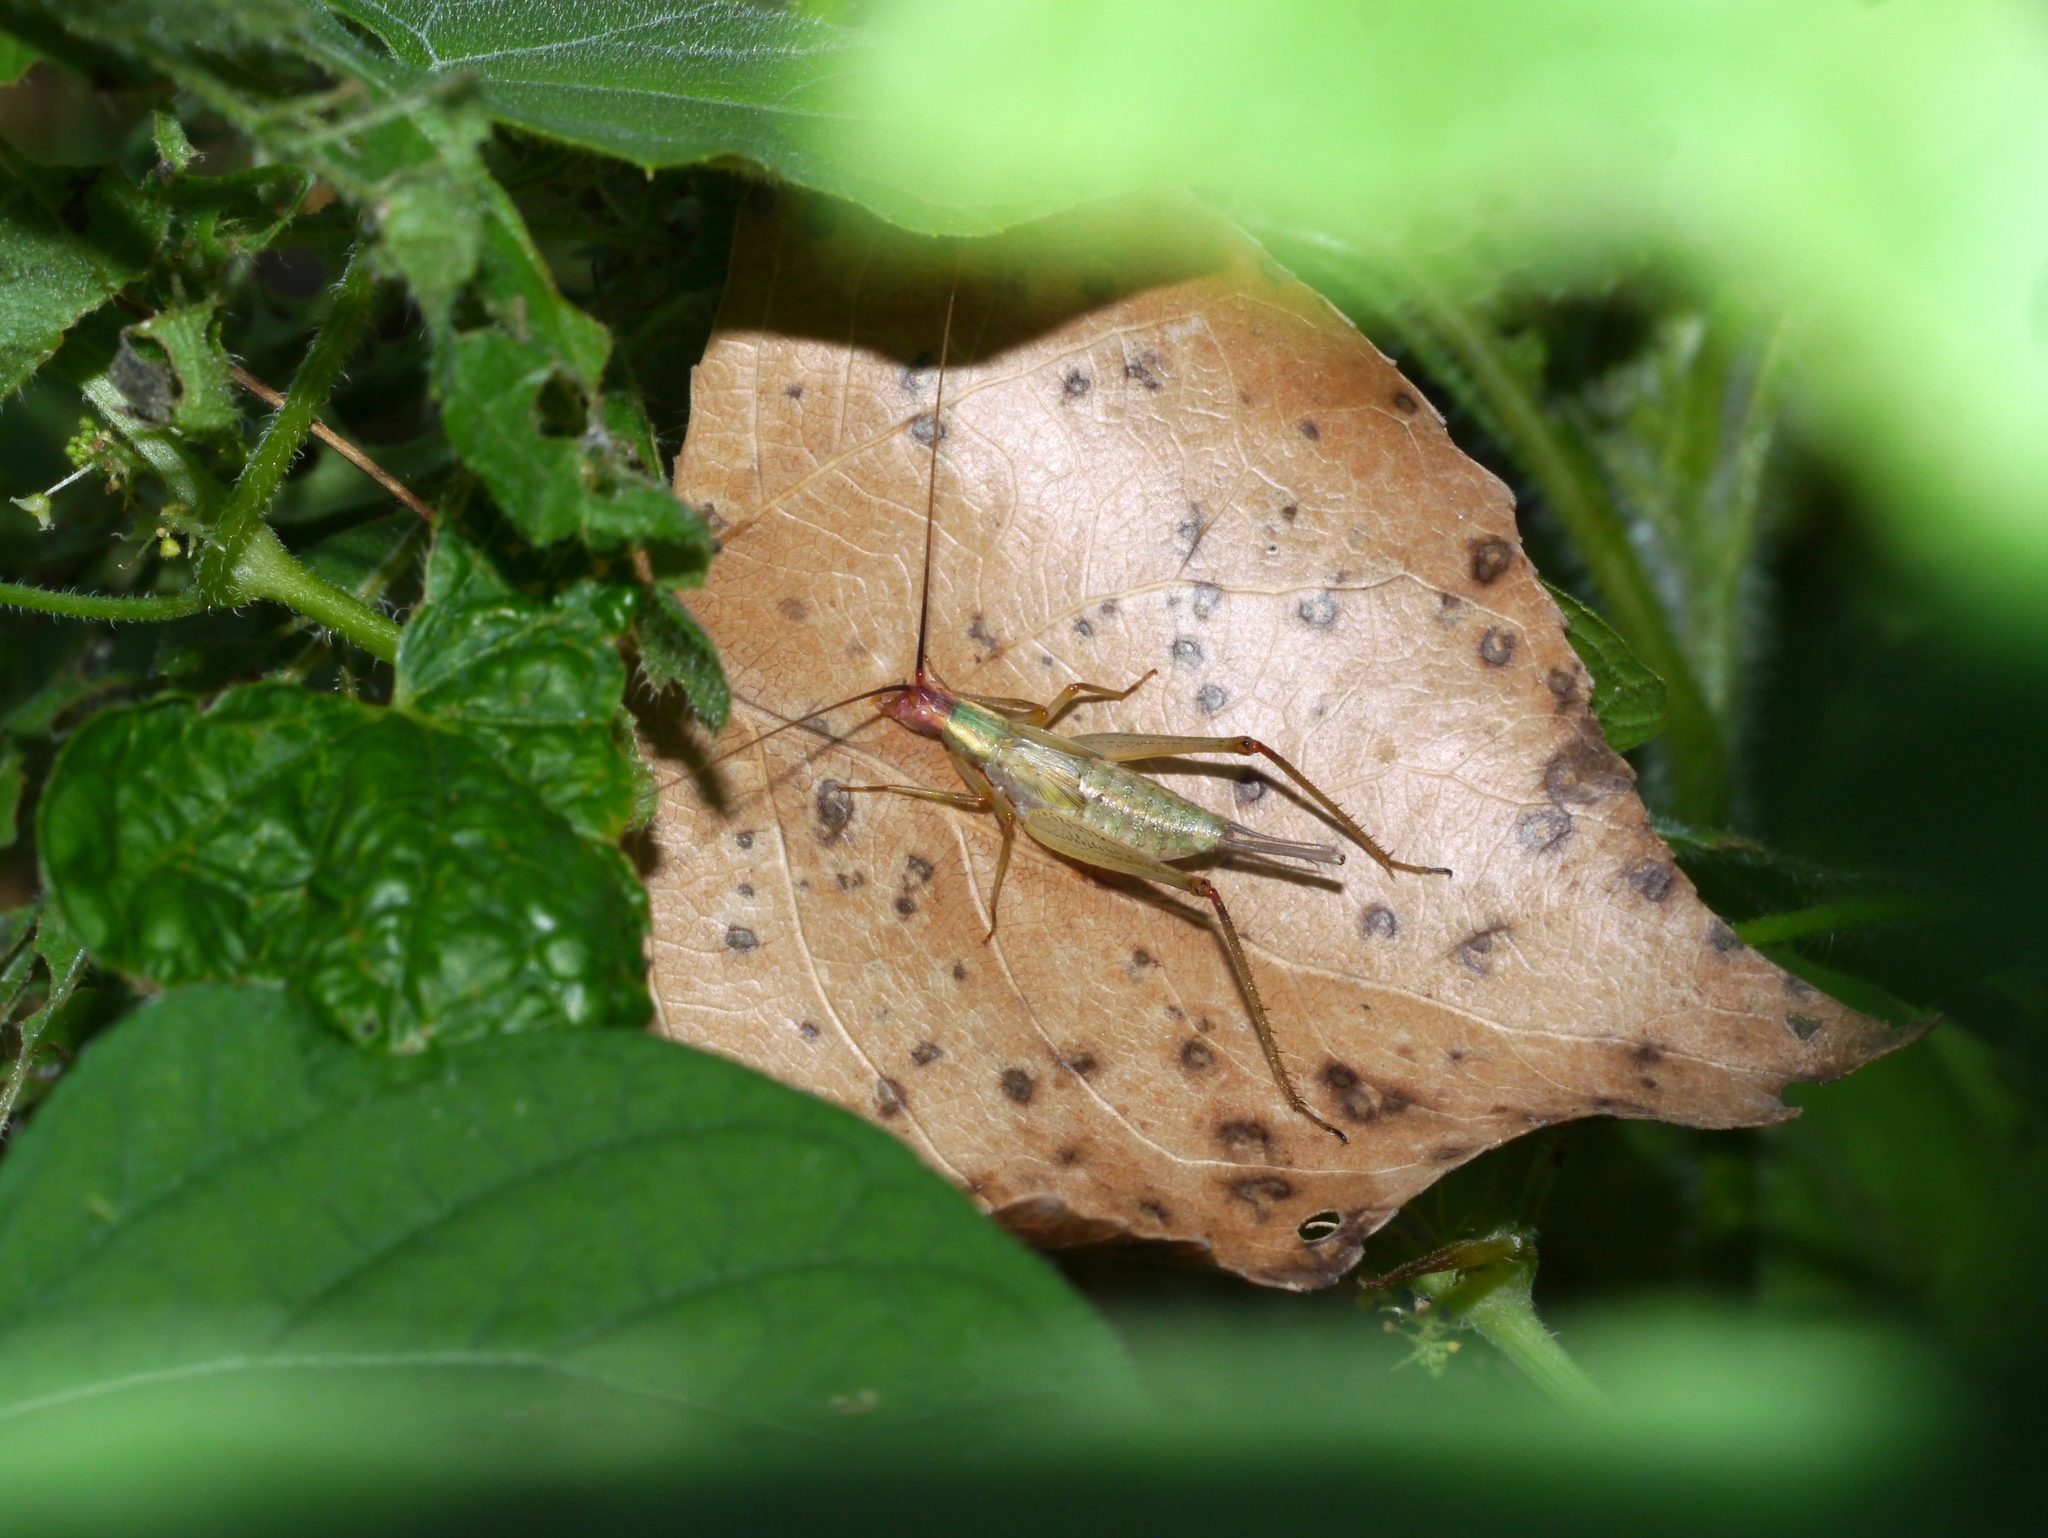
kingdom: Animalia
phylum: Arthropoda
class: Insecta
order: Orthoptera
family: Gryllidae
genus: Oecanthus
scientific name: Oecanthus californicus
